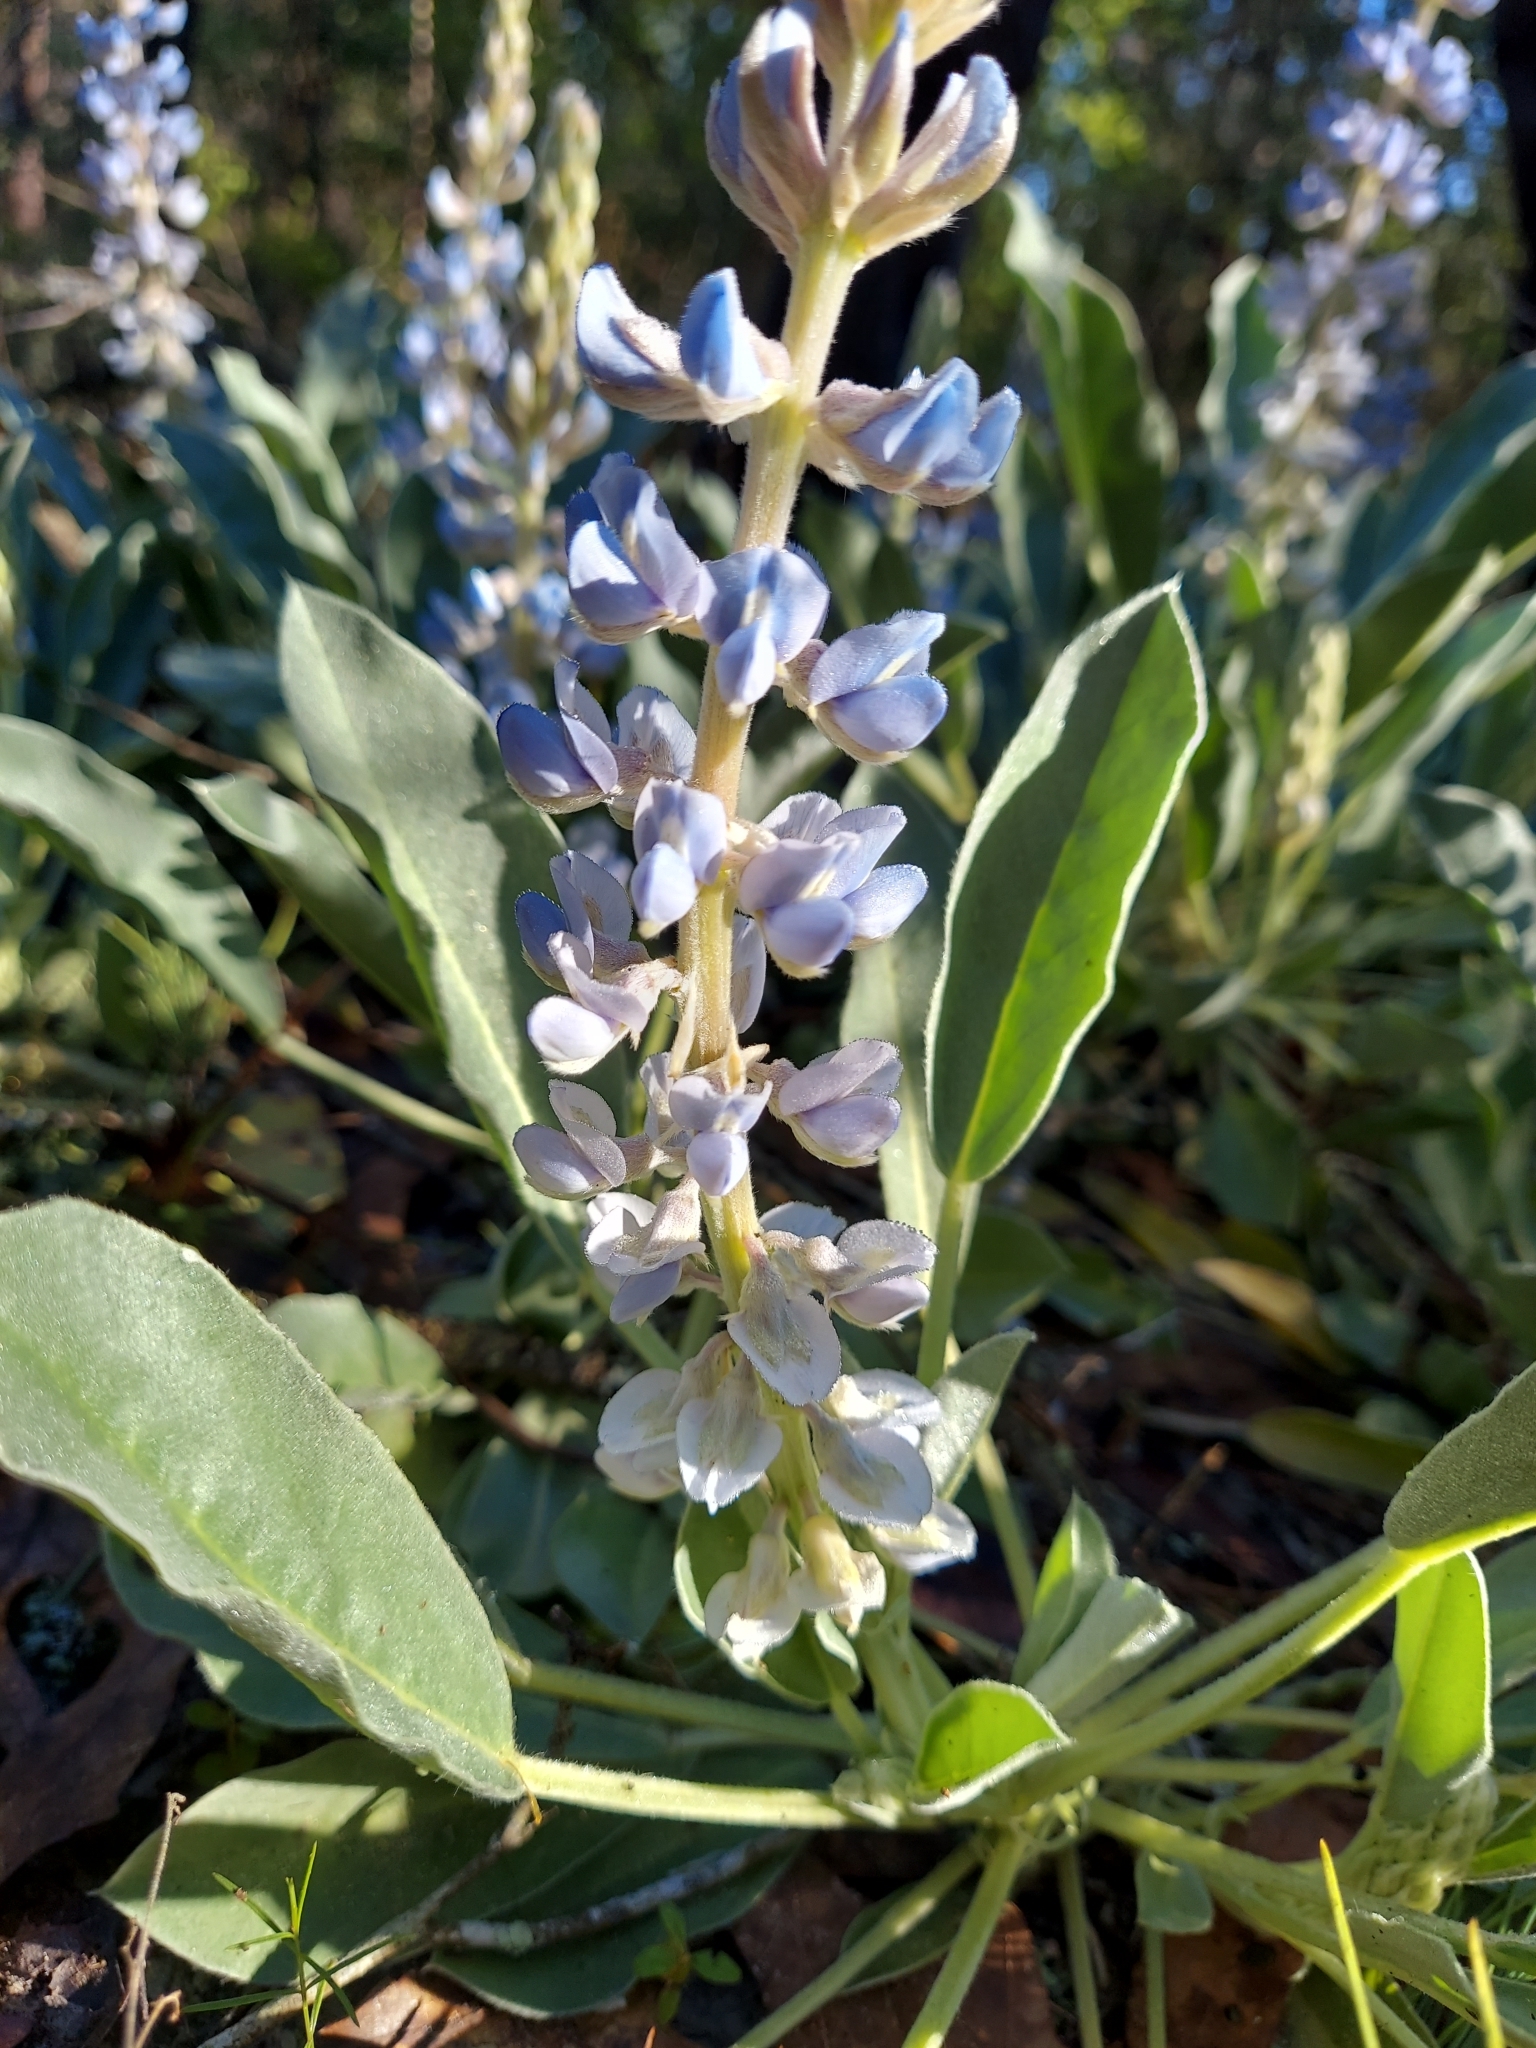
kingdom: Plantae
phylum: Tracheophyta
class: Magnoliopsida
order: Fabales
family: Fabaceae
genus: Lupinus
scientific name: Lupinus
